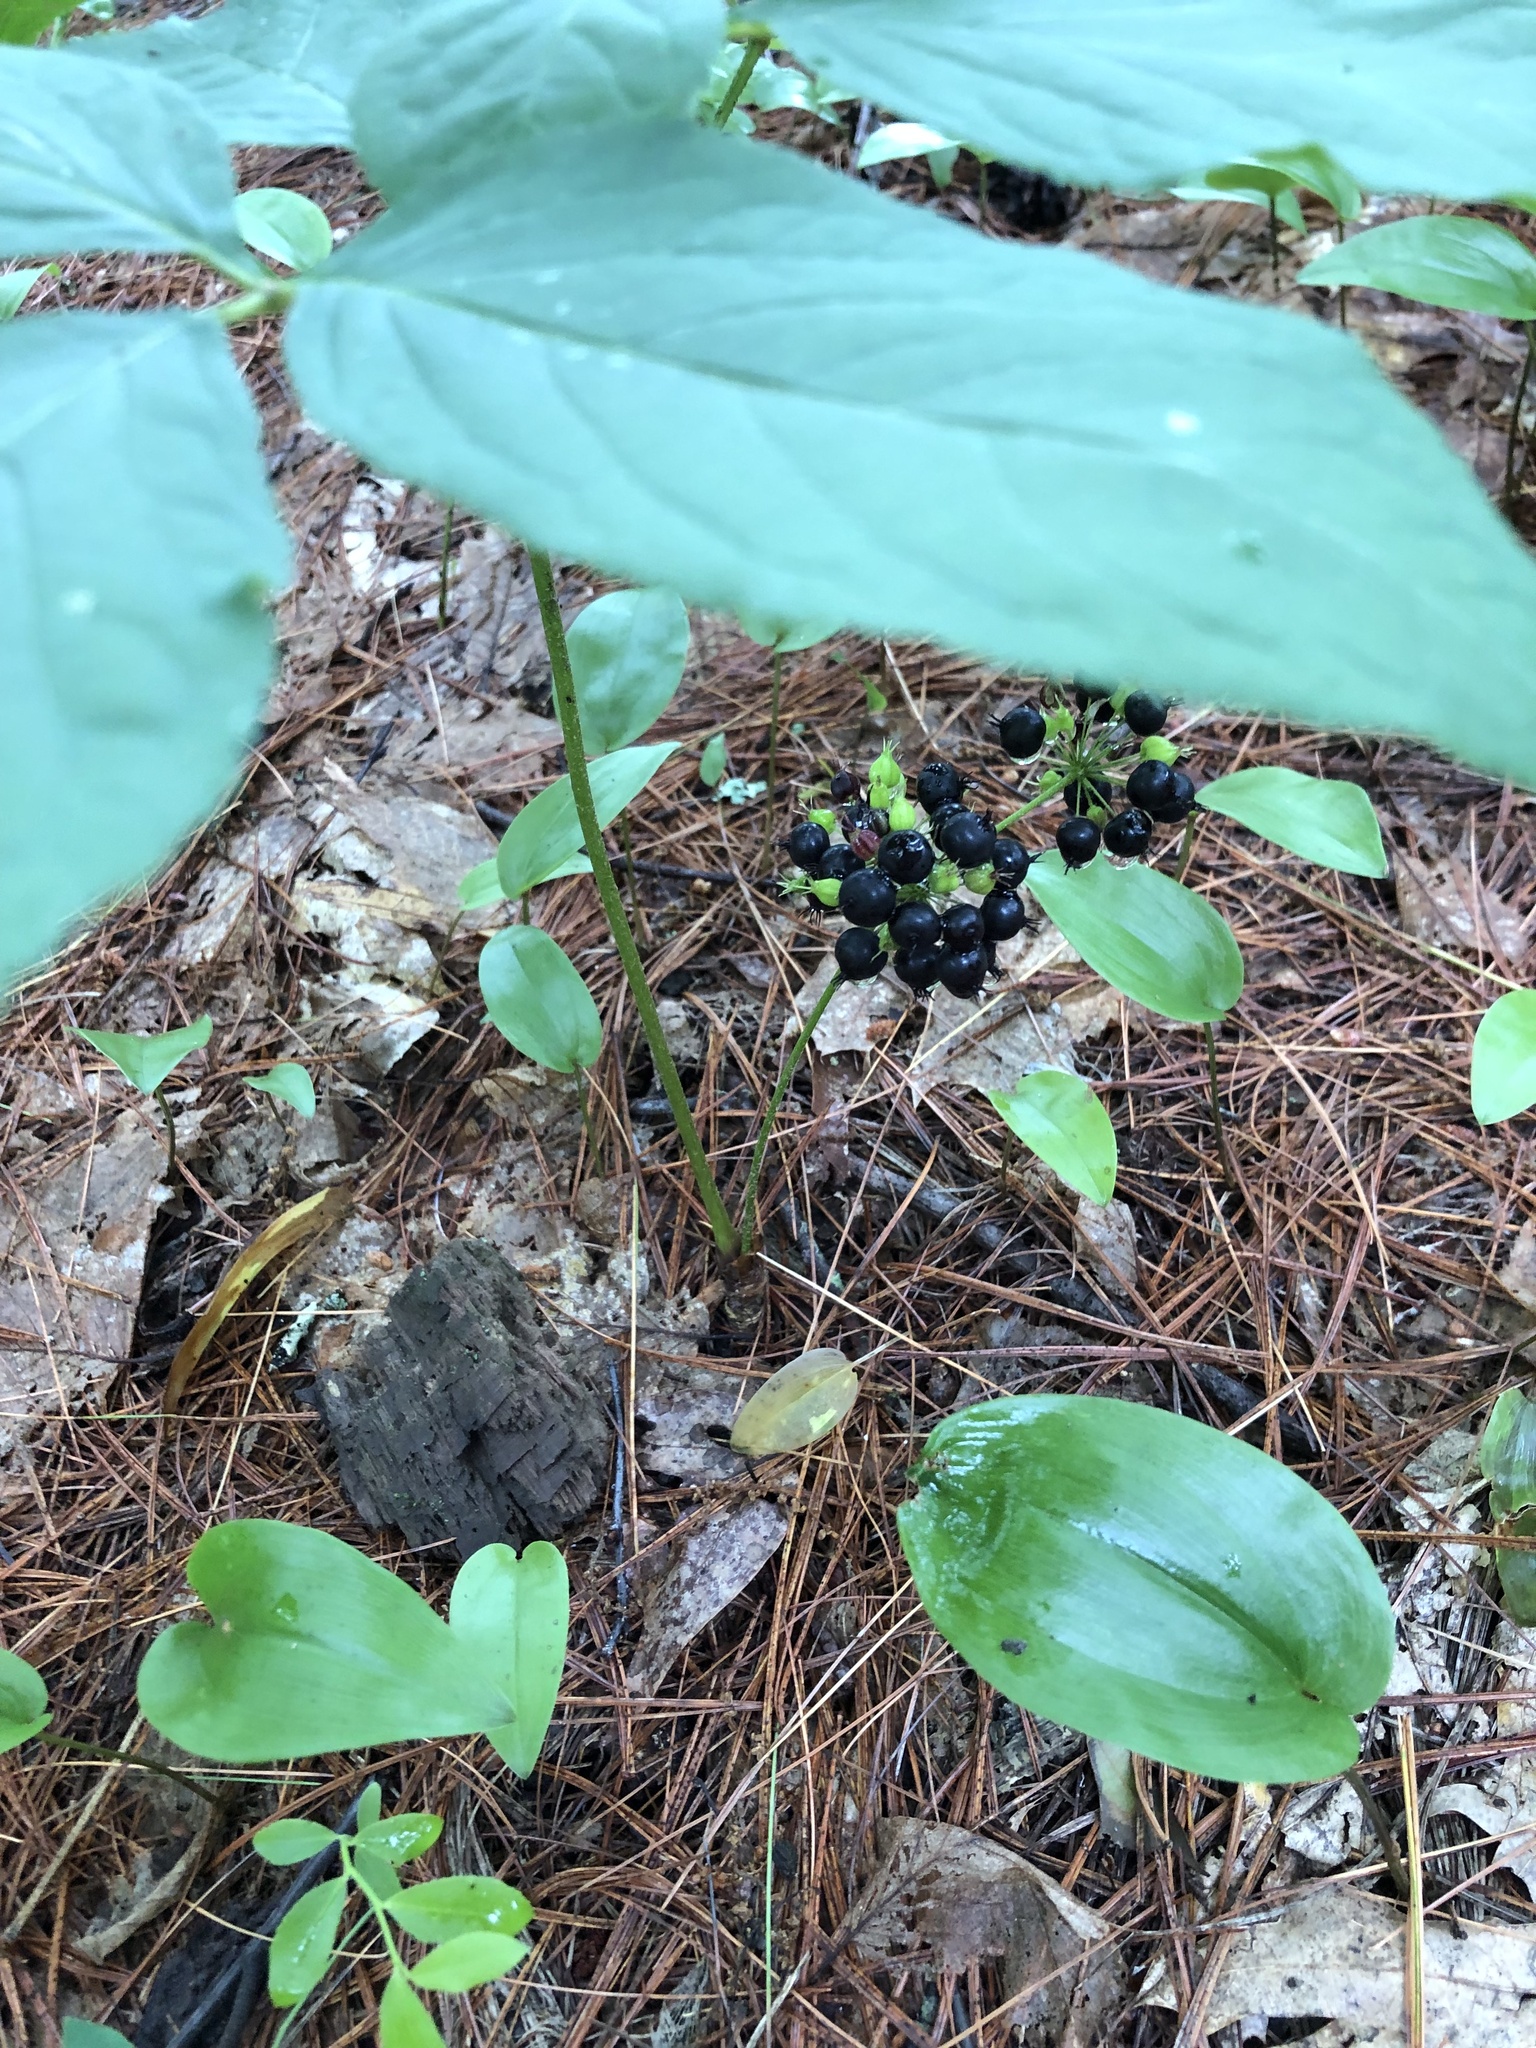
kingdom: Plantae
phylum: Tracheophyta
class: Magnoliopsida
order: Apiales
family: Araliaceae
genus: Aralia
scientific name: Aralia nudicaulis
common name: Wild sarsaparilla
